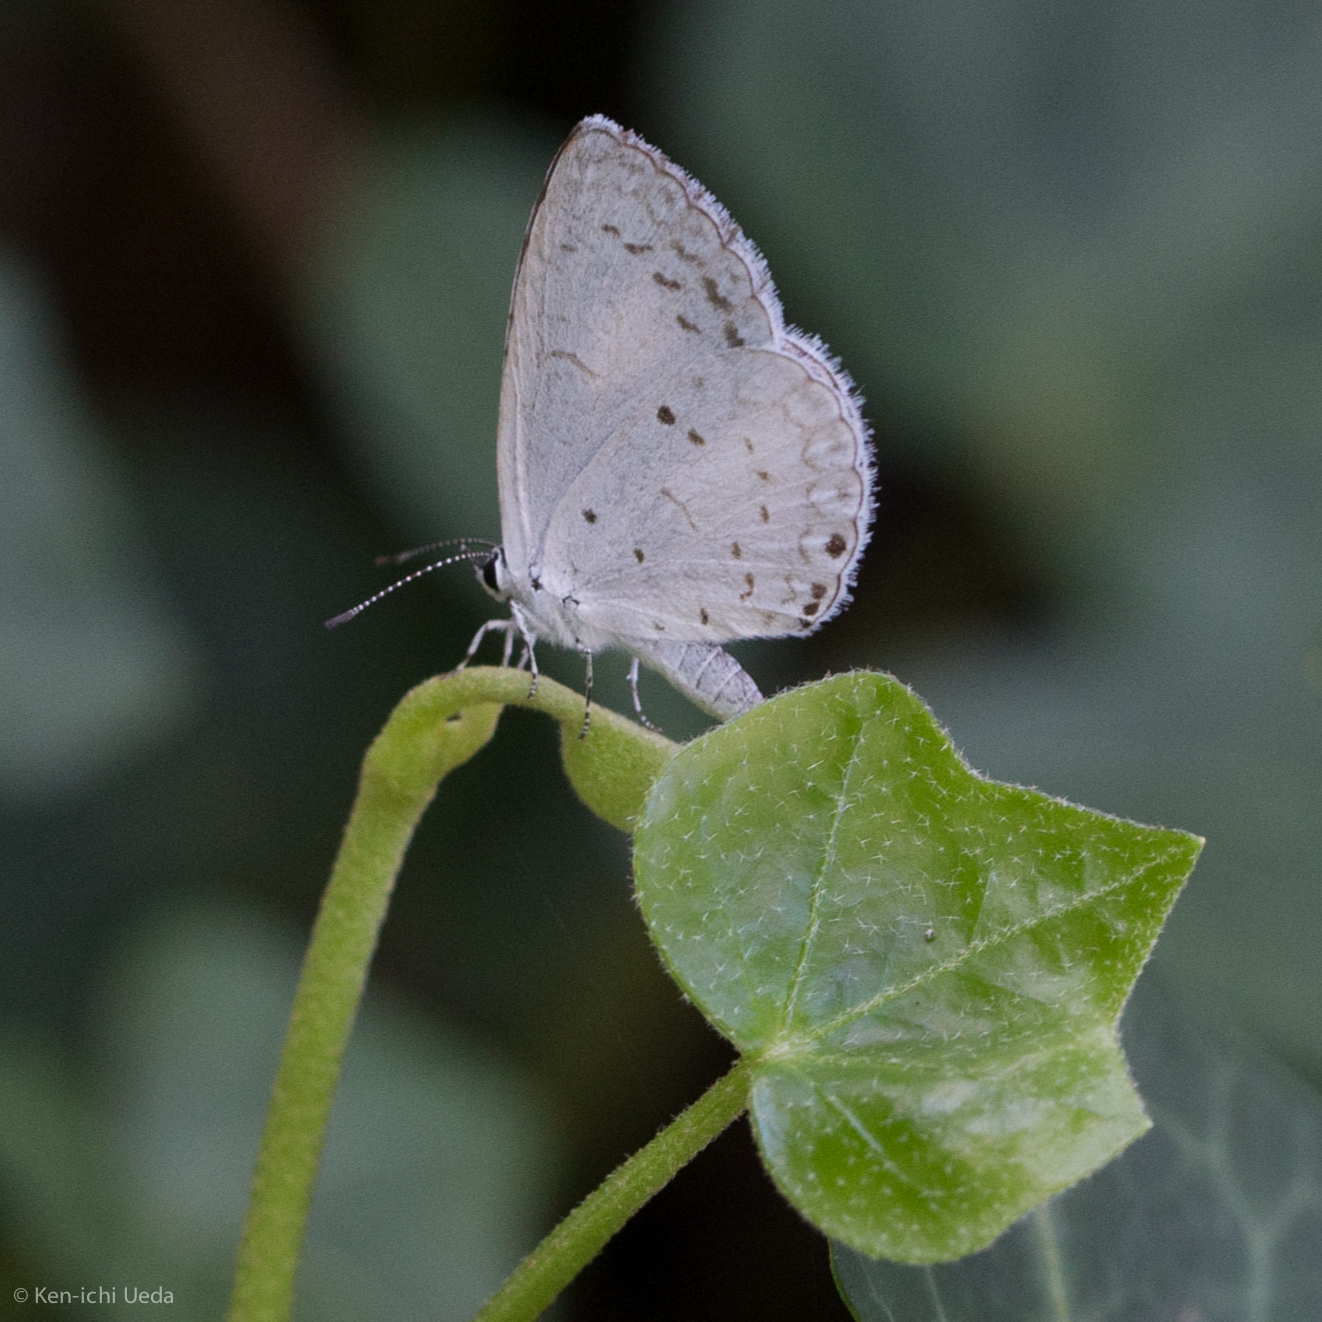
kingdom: Animalia
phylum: Arthropoda
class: Insecta
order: Lepidoptera
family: Lycaenidae
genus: Cyaniris
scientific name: Cyaniris neglecta
